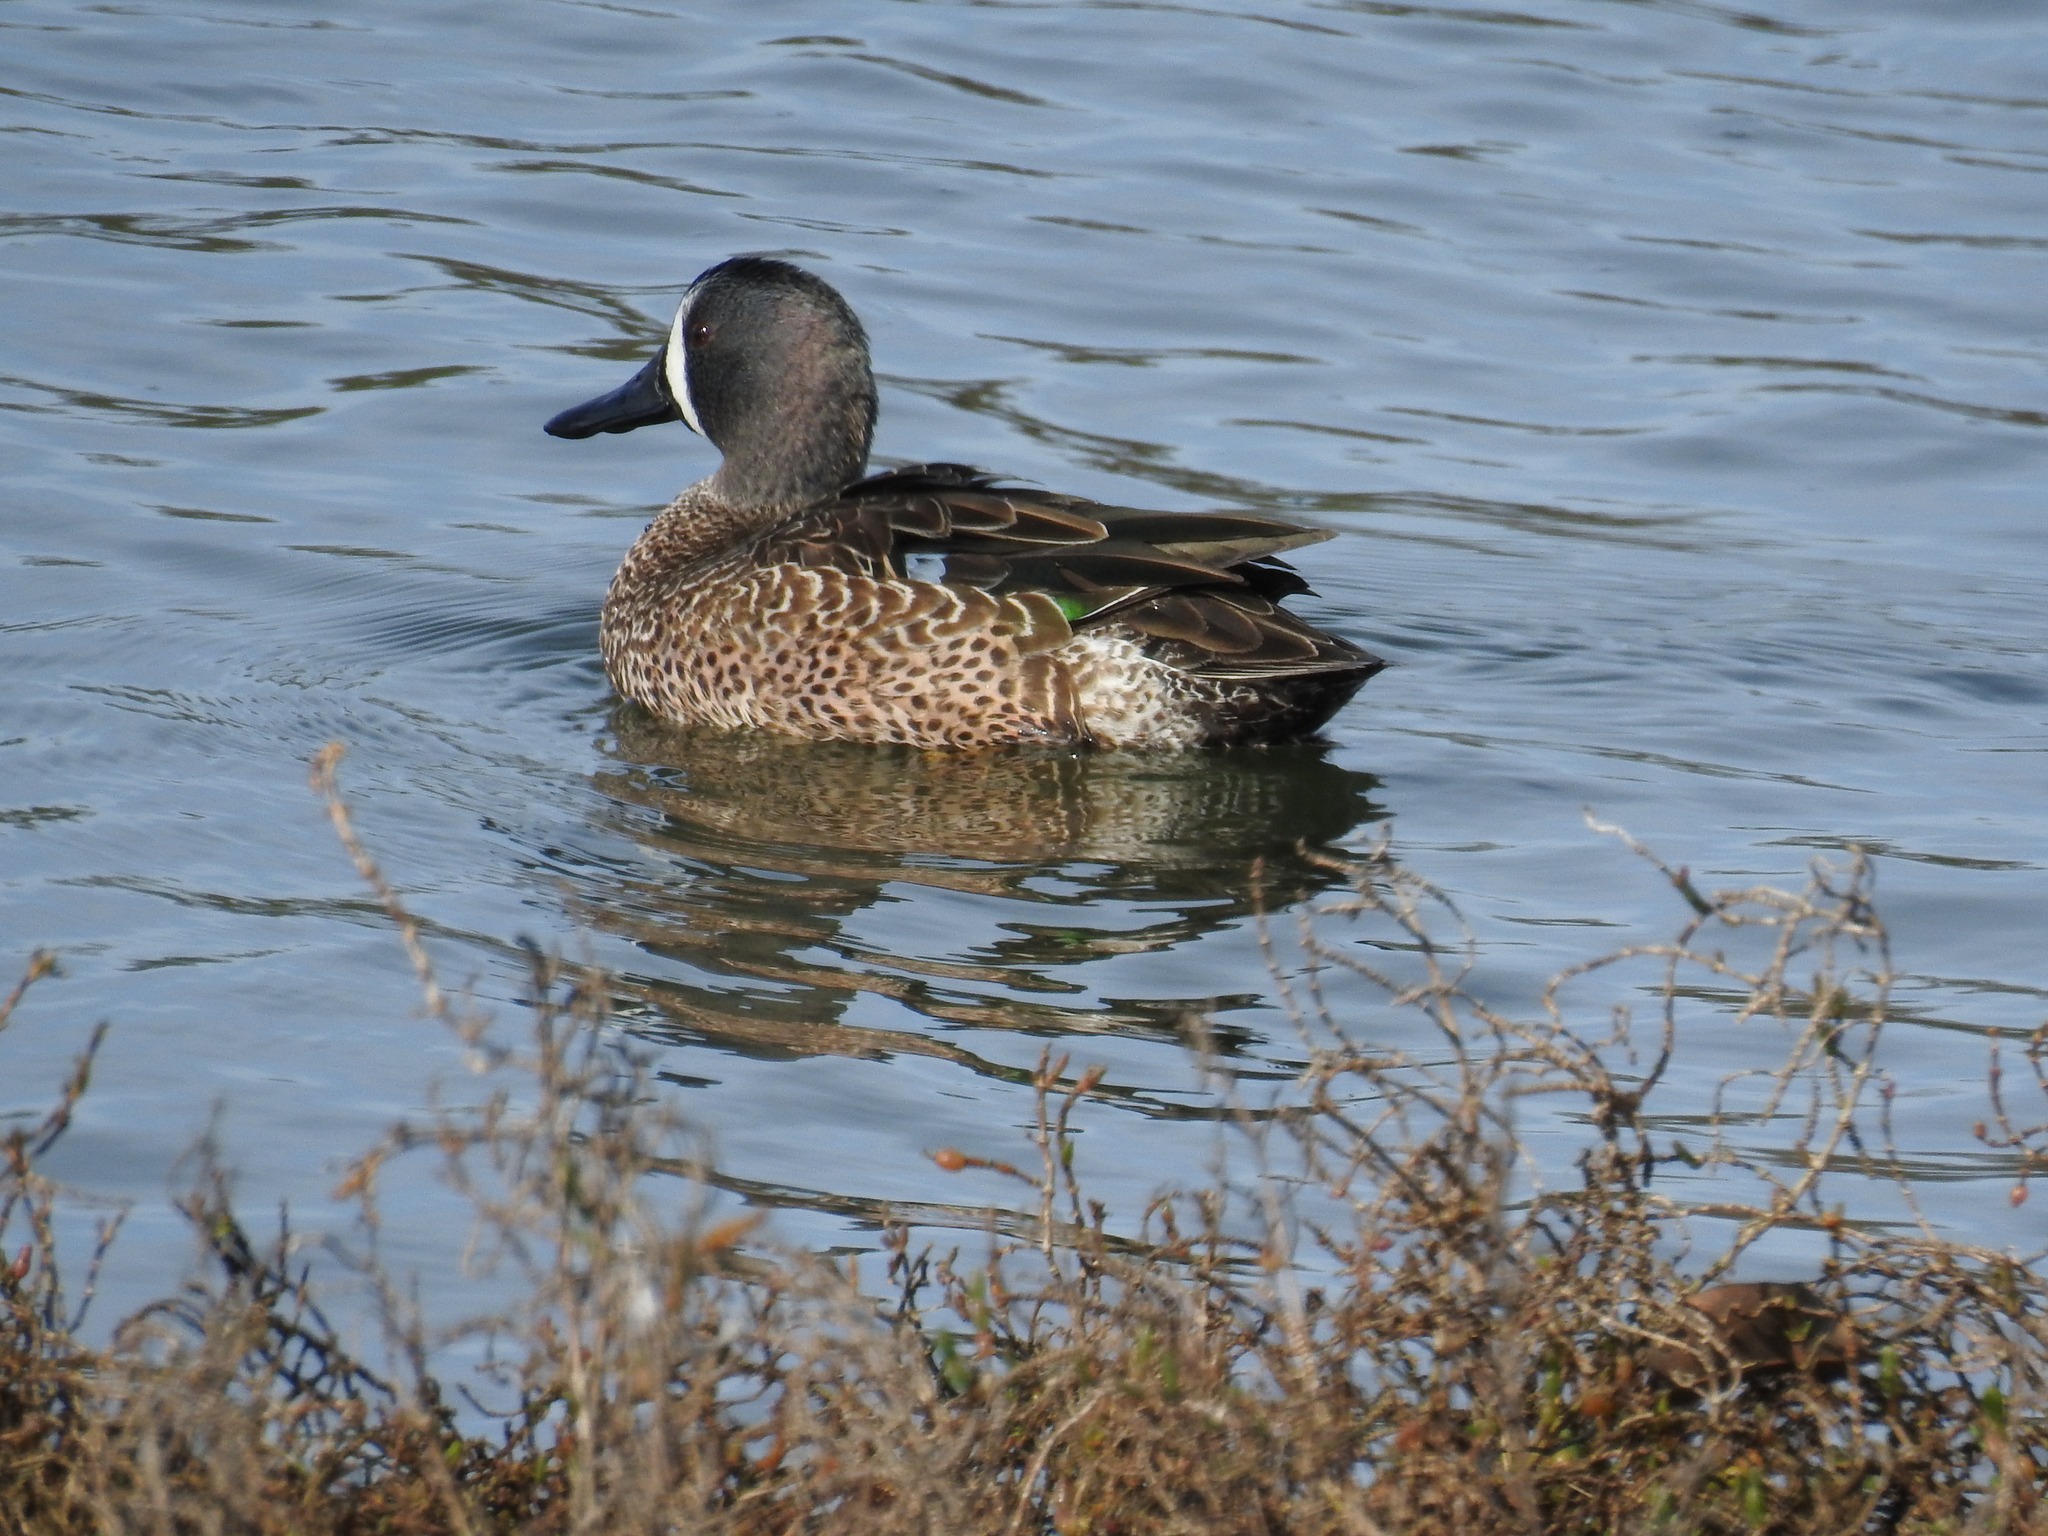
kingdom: Animalia
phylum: Chordata
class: Aves
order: Anseriformes
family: Anatidae
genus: Spatula
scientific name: Spatula discors
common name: Blue-winged teal
